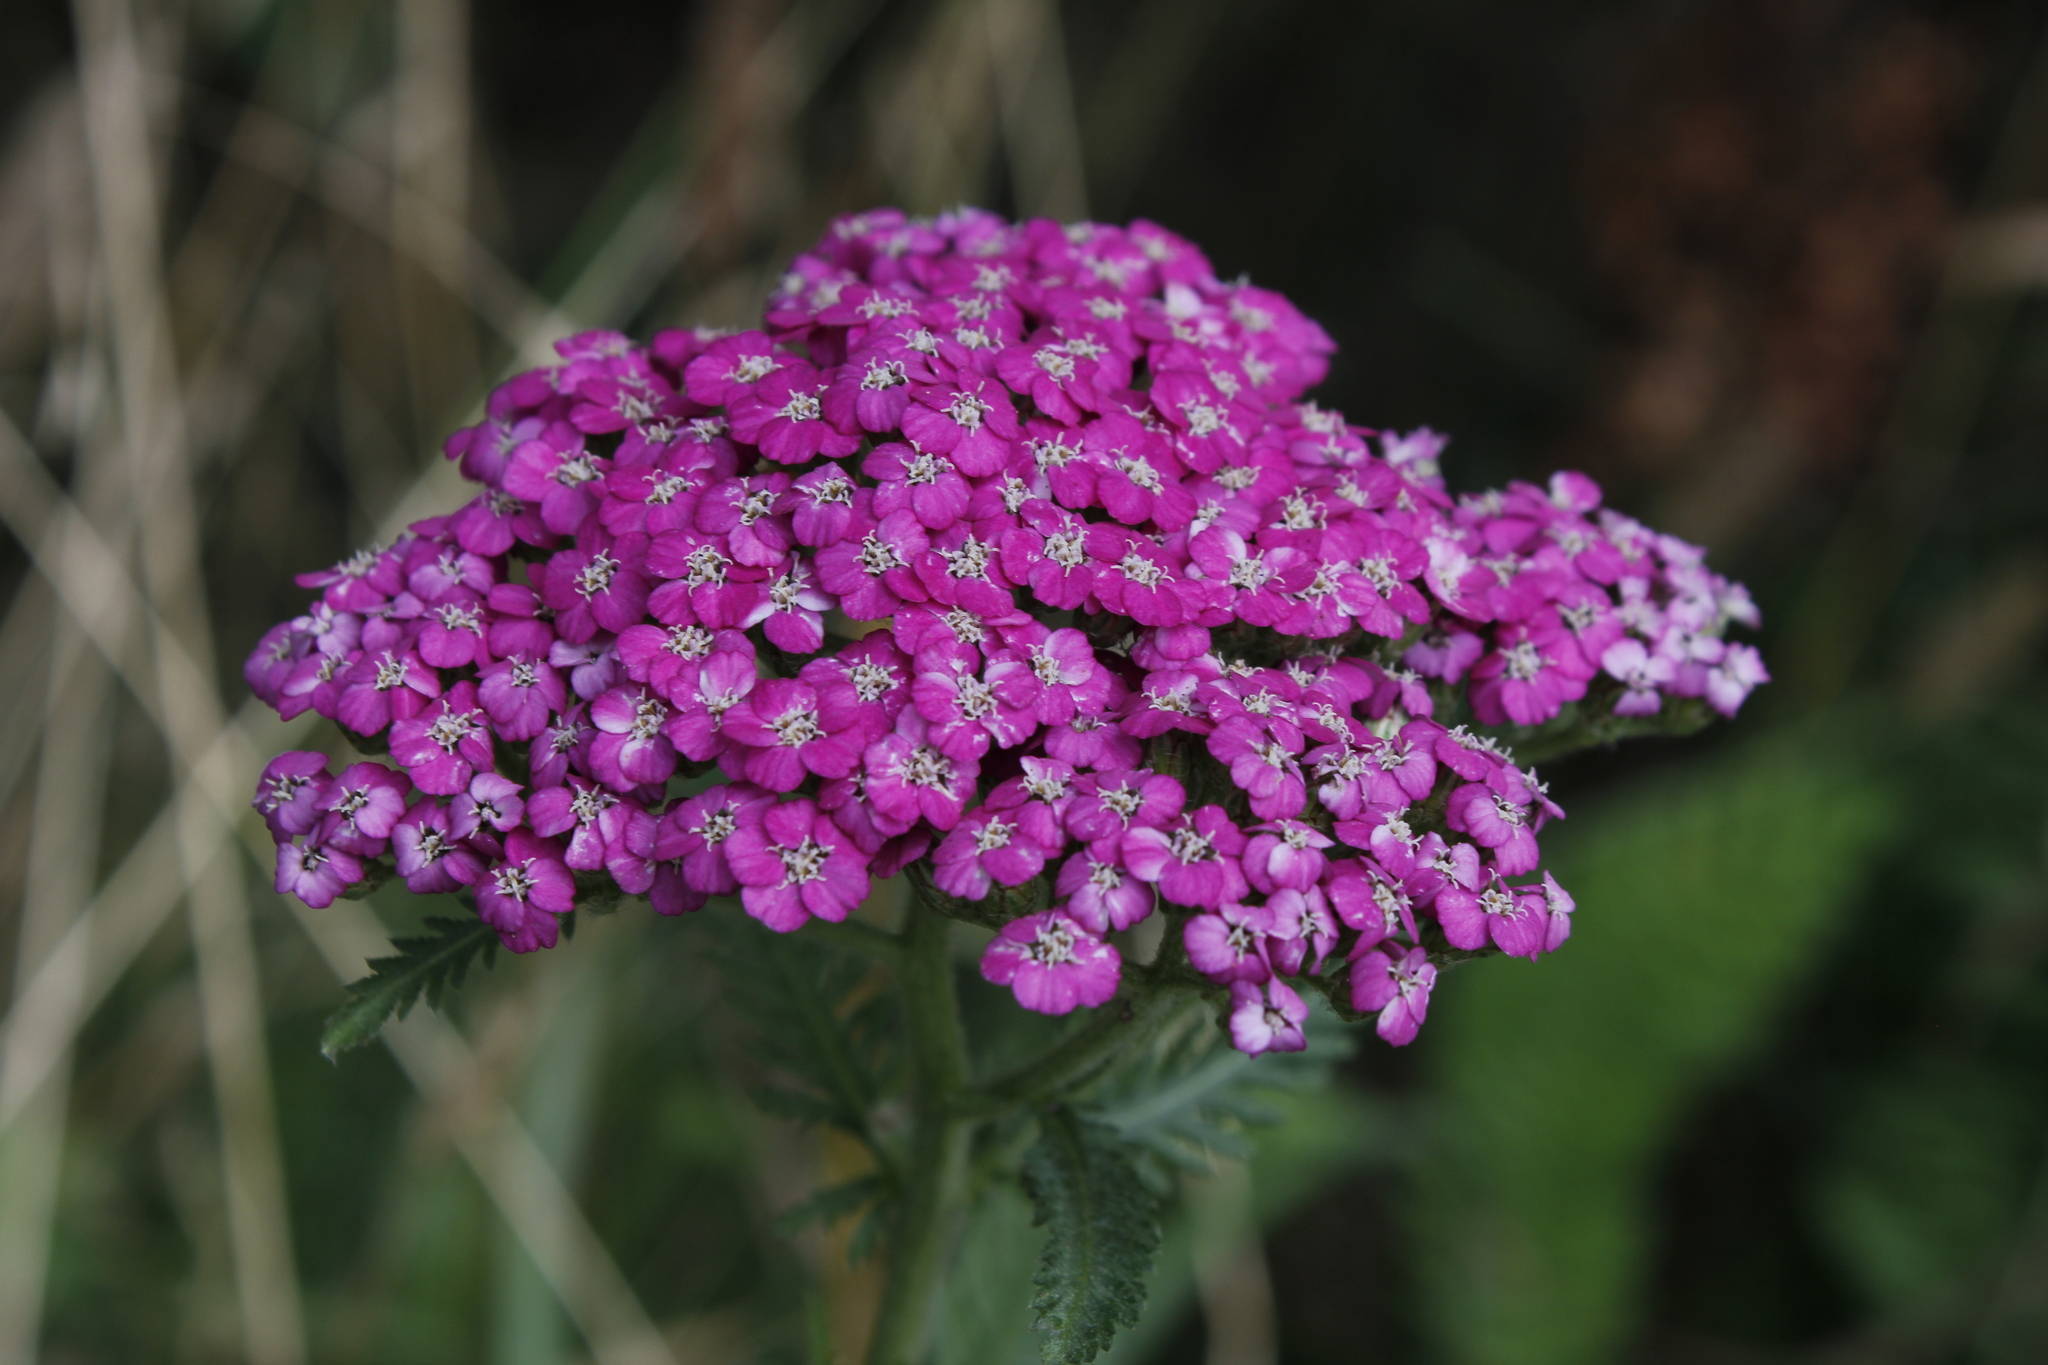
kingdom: Plantae
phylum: Tracheophyta
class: Magnoliopsida
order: Asterales
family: Asteraceae
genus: Achillea
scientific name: Achillea millefolium
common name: Yarrow
